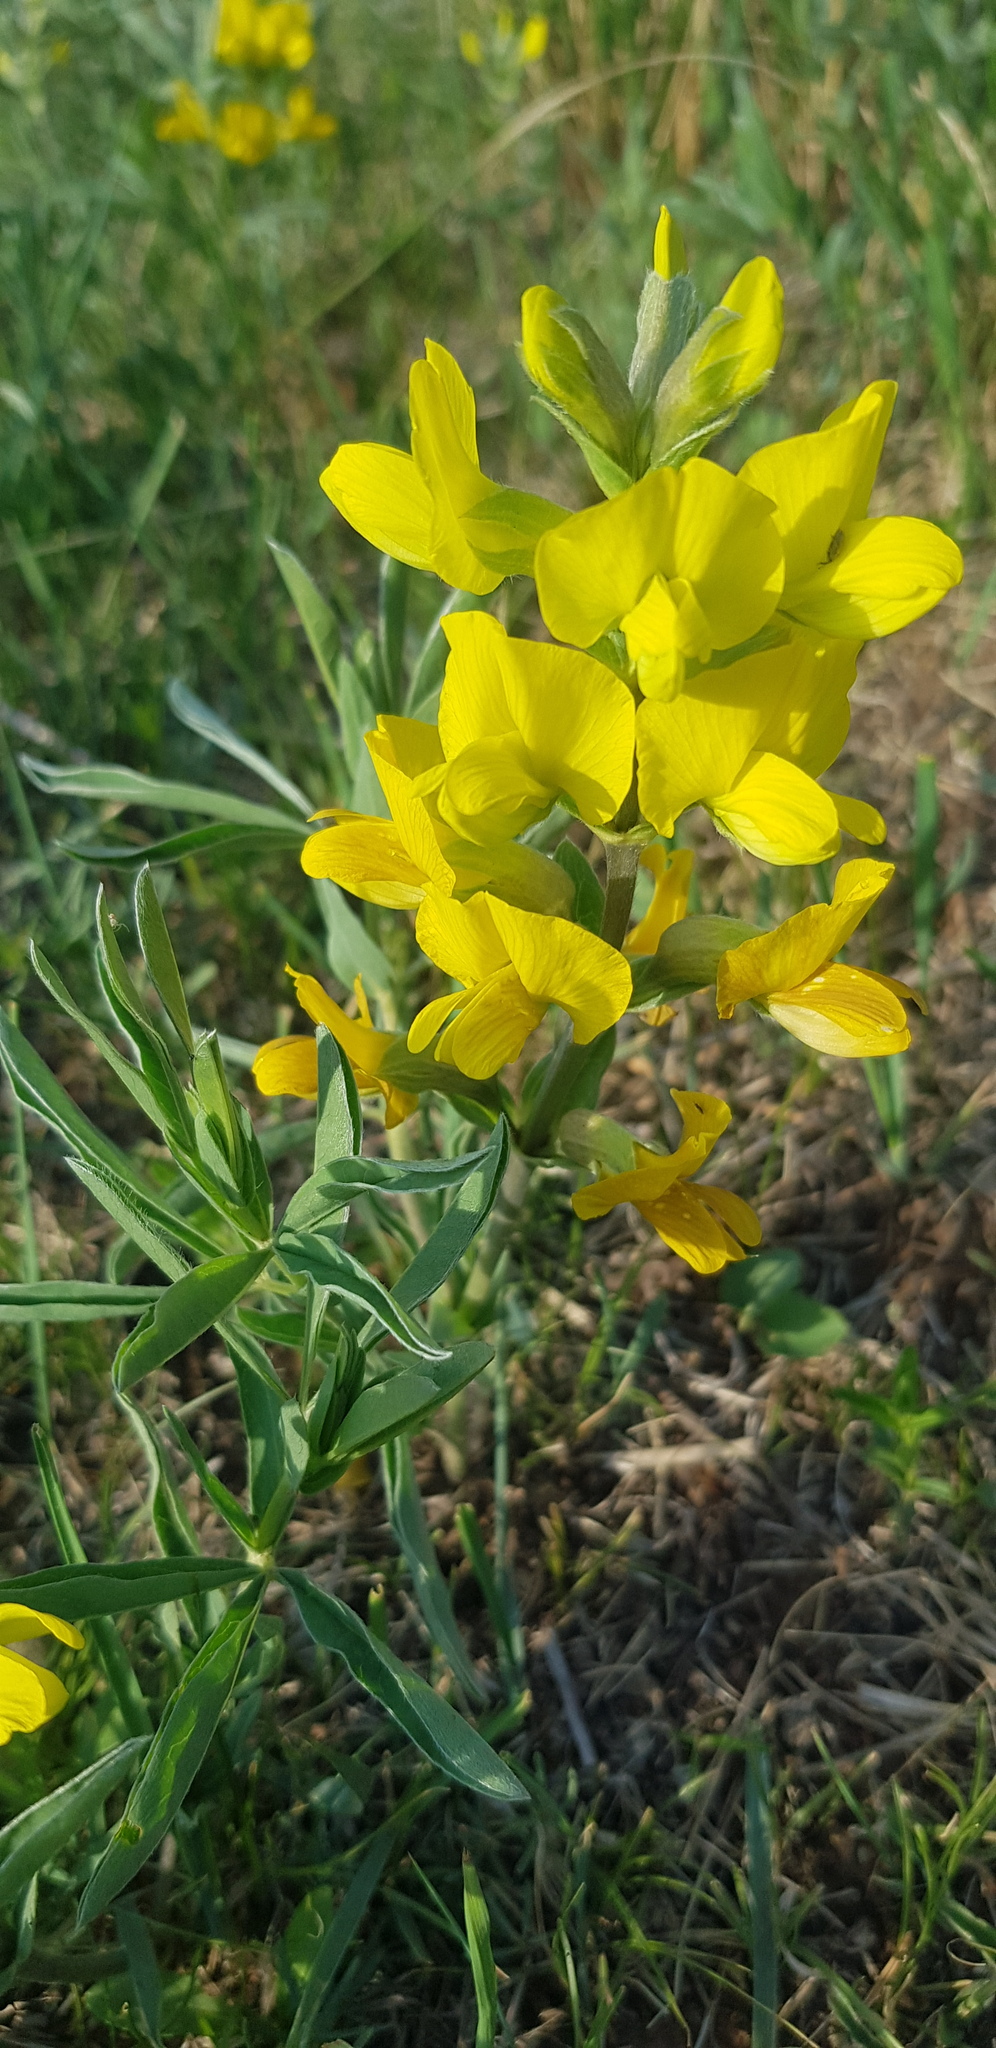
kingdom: Plantae
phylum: Tracheophyta
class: Magnoliopsida
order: Fabales
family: Fabaceae
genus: Thermopsis
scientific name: Thermopsis lanceolata
